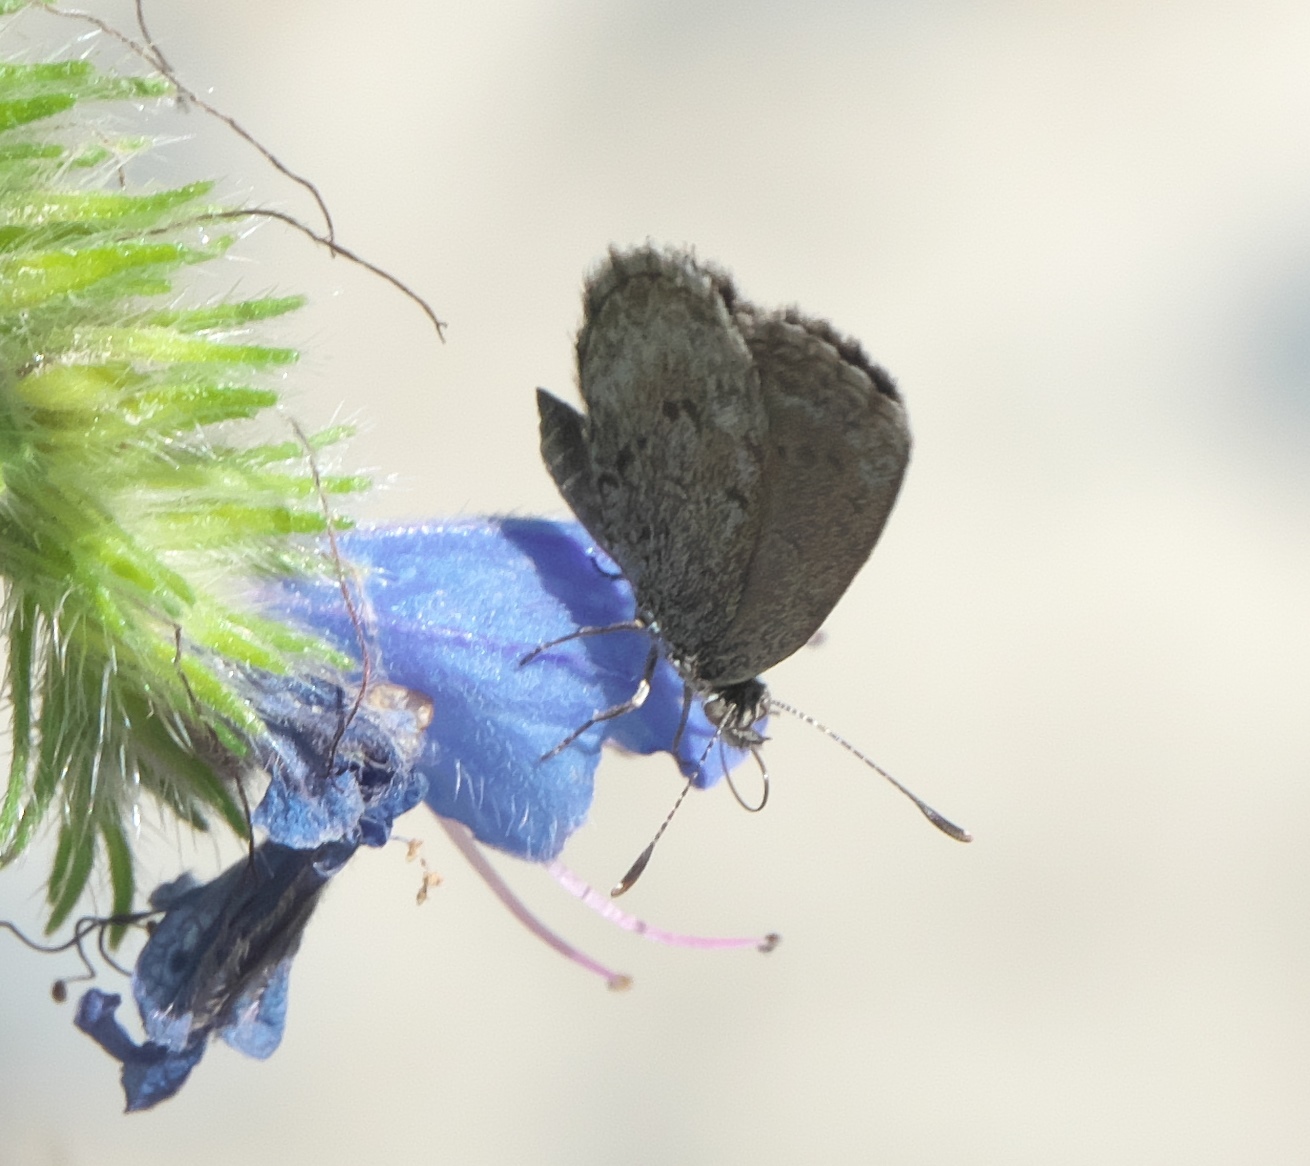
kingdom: Animalia
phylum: Arthropoda
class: Insecta
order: Lepidoptera
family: Lycaenidae
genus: Zizina
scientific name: Zizina oxleyi
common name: Southern blue
